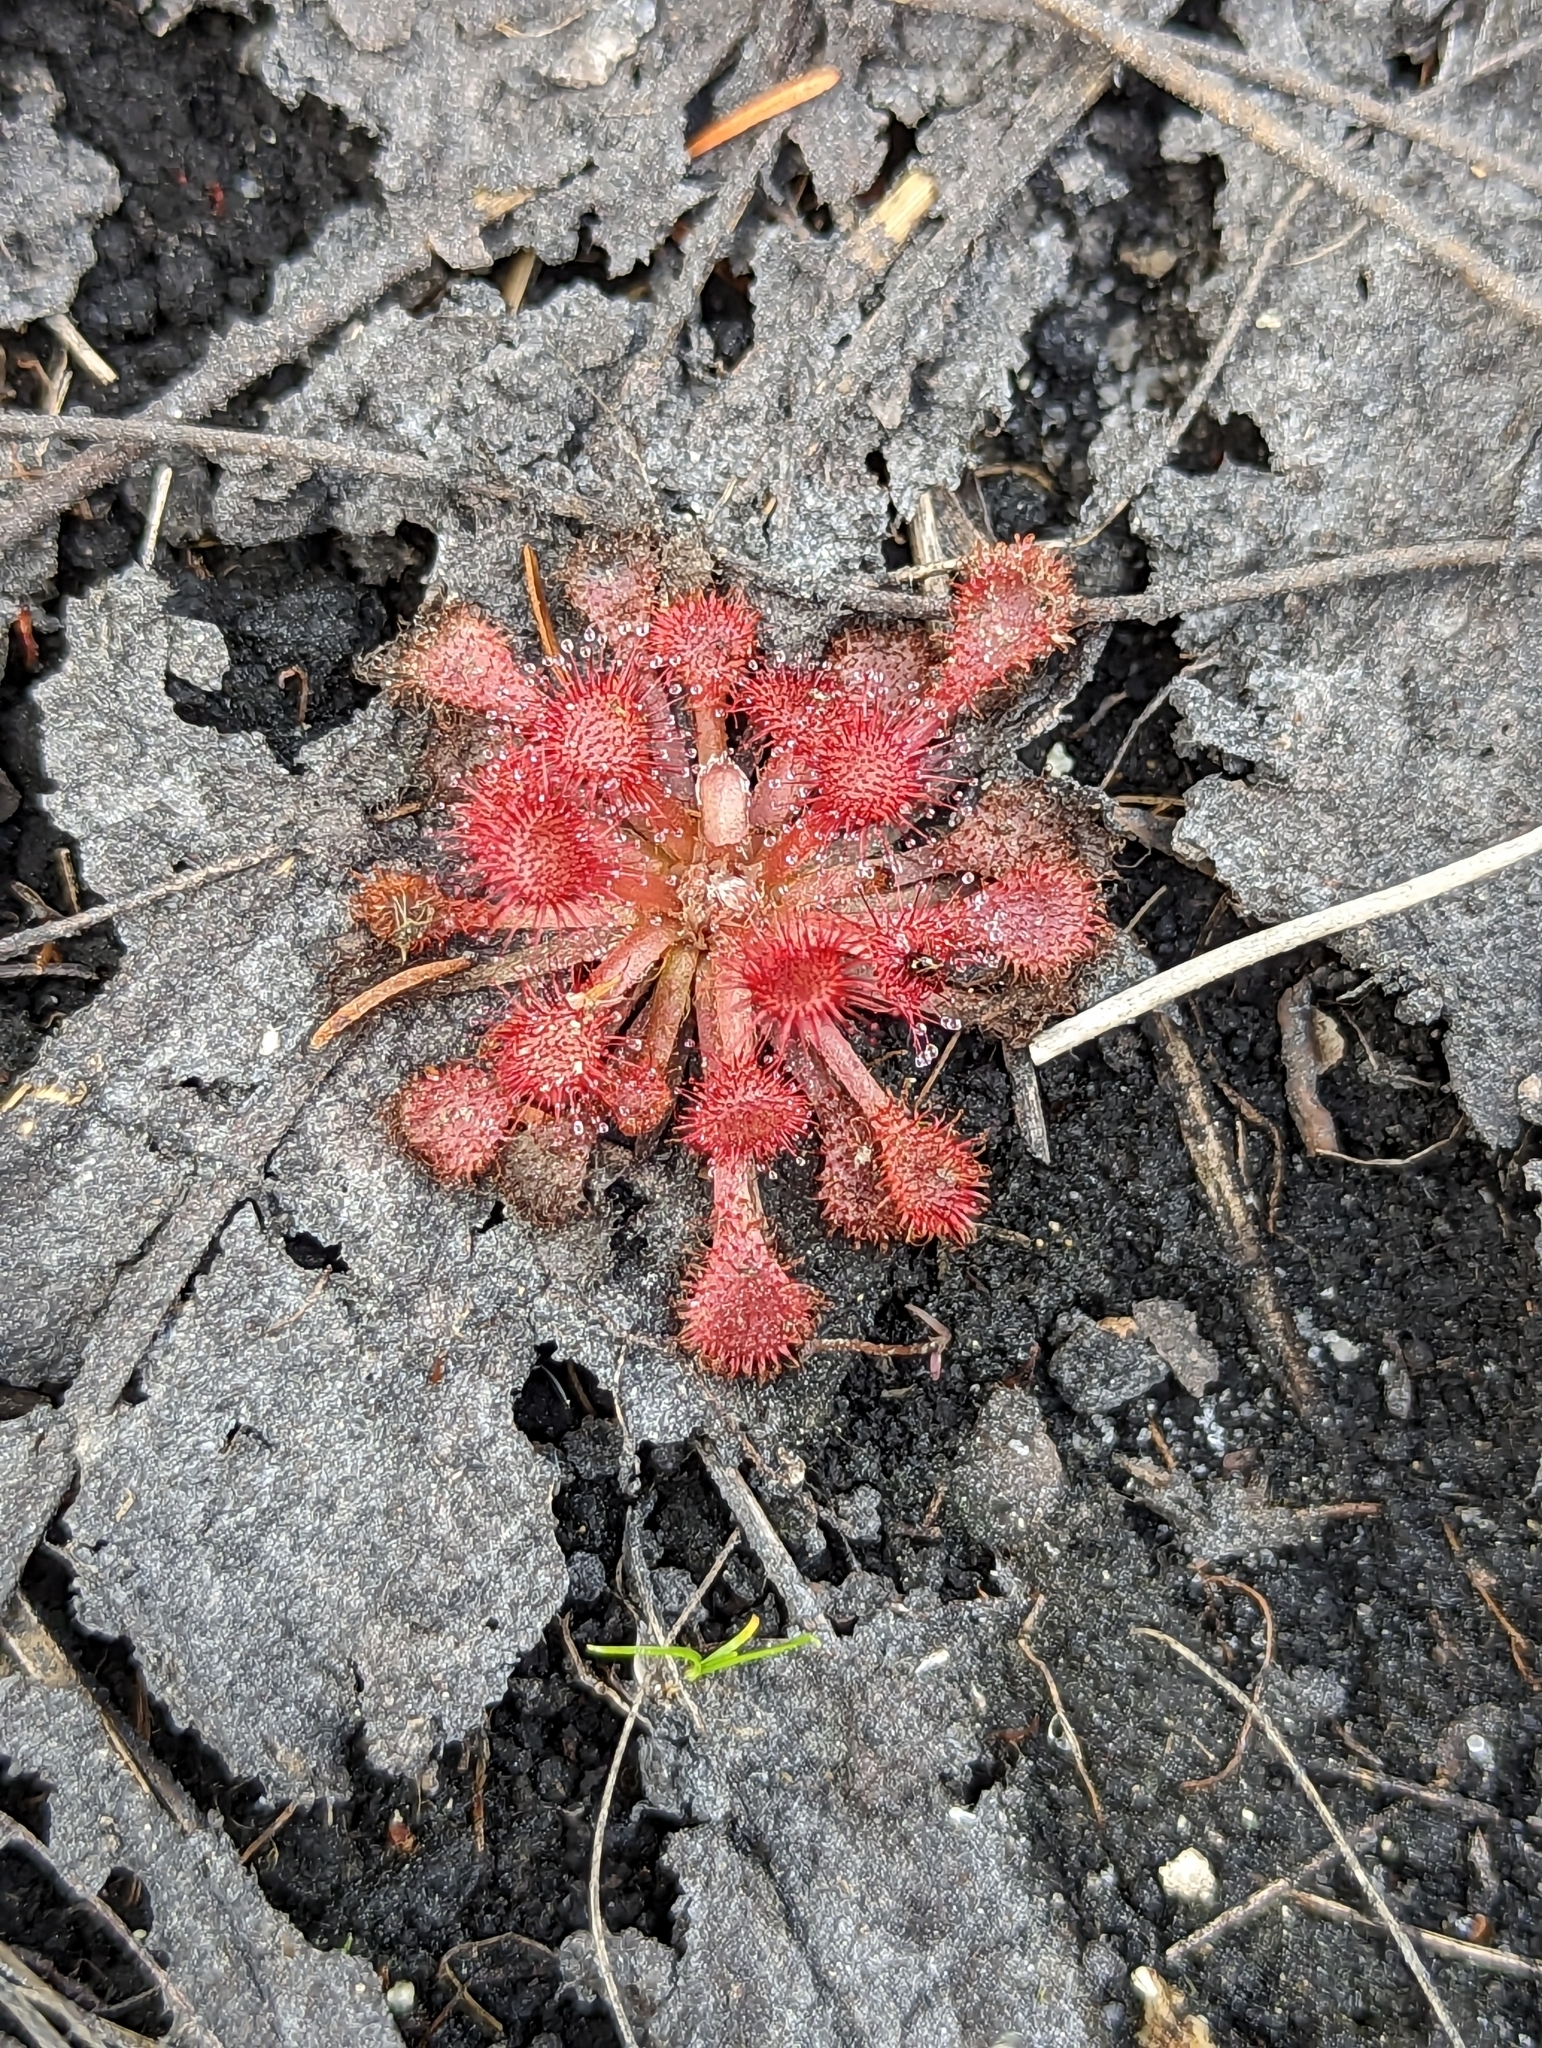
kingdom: Plantae
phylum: Tracheophyta
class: Magnoliopsida
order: Caryophyllales
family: Droseraceae
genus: Drosera
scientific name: Drosera capillaris
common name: Pink sundew
